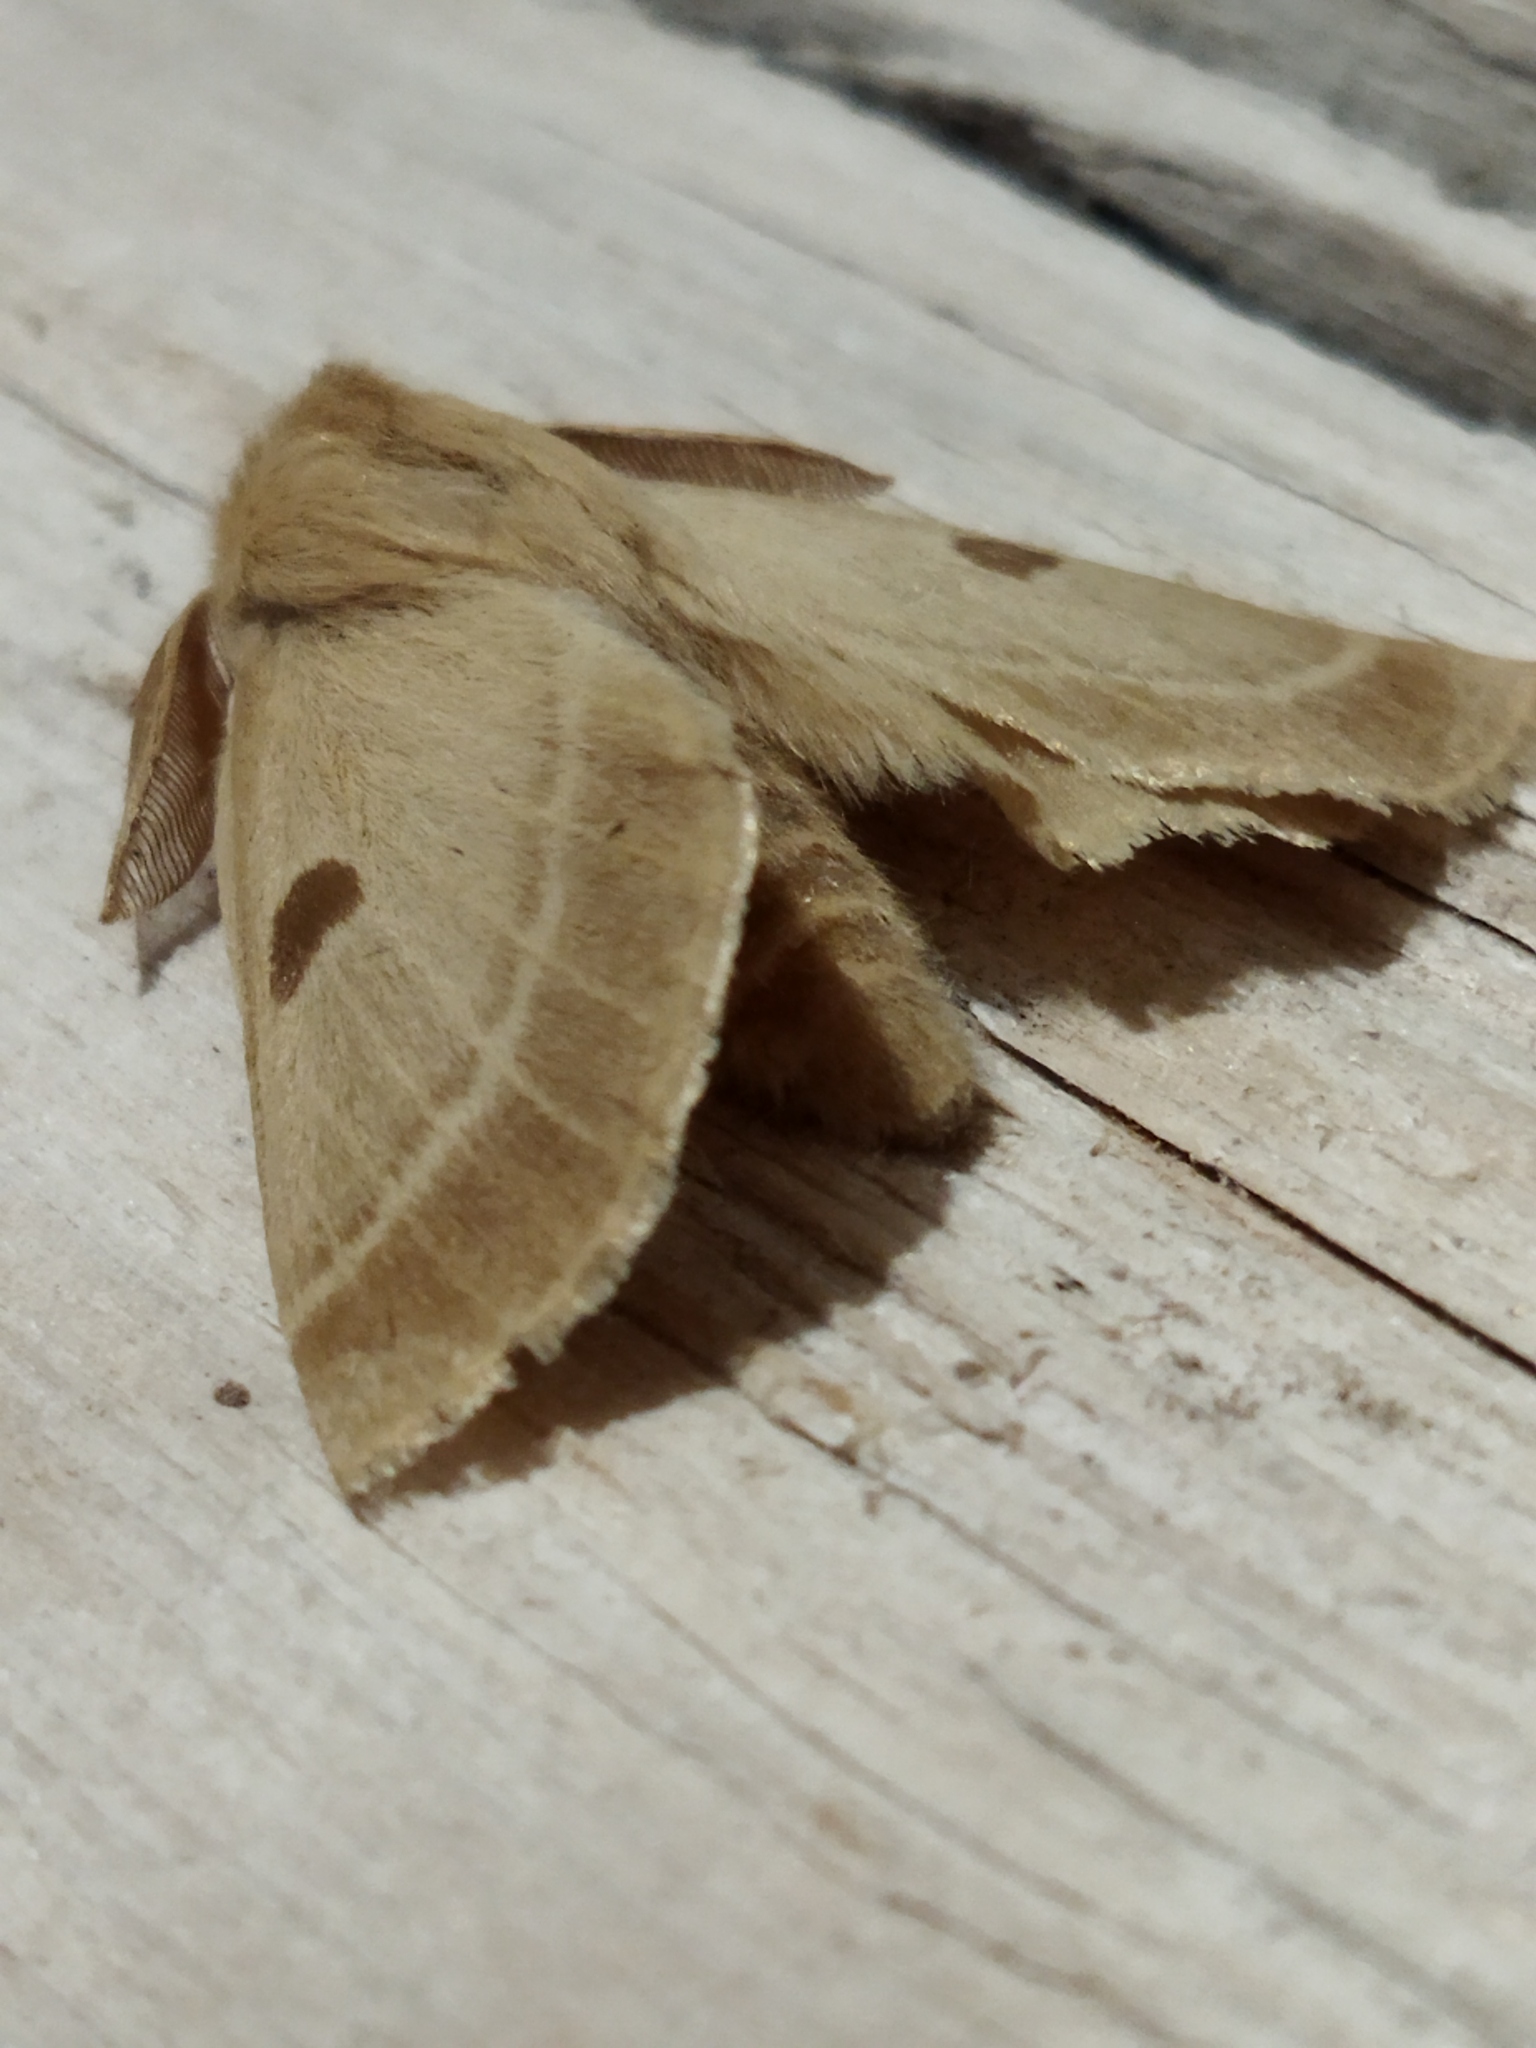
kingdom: Animalia
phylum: Arthropoda
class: Insecta
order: Lepidoptera
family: Brahmaeidae
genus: Lemonia
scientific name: Lemonia balcanica
